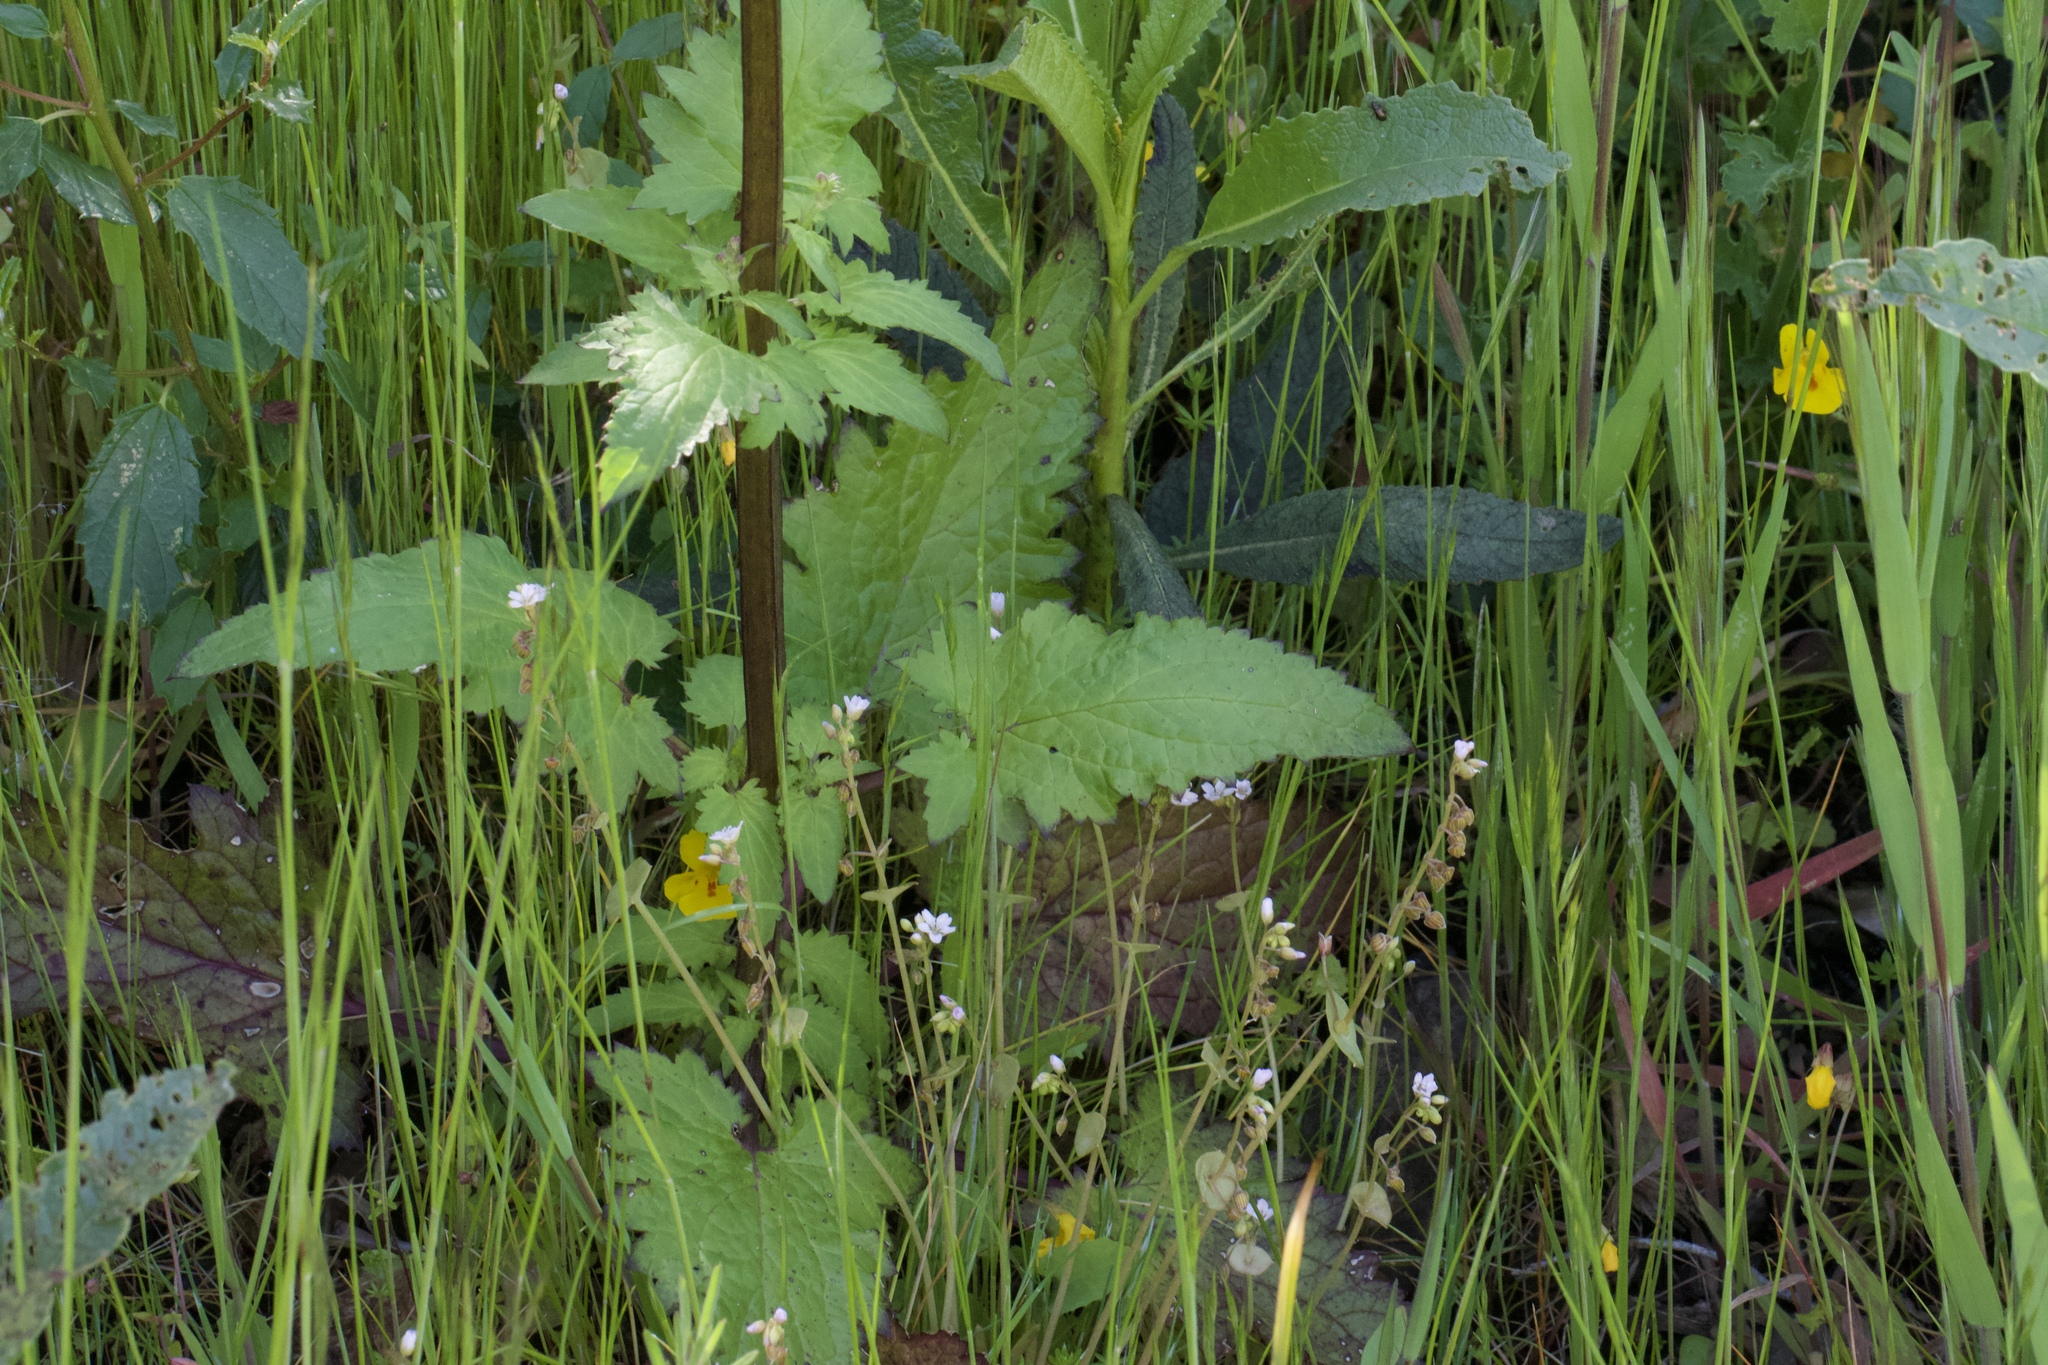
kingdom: Plantae
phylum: Tracheophyta
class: Magnoliopsida
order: Lamiales
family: Scrophulariaceae
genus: Scrophularia
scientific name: Scrophularia californica
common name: California figwort
